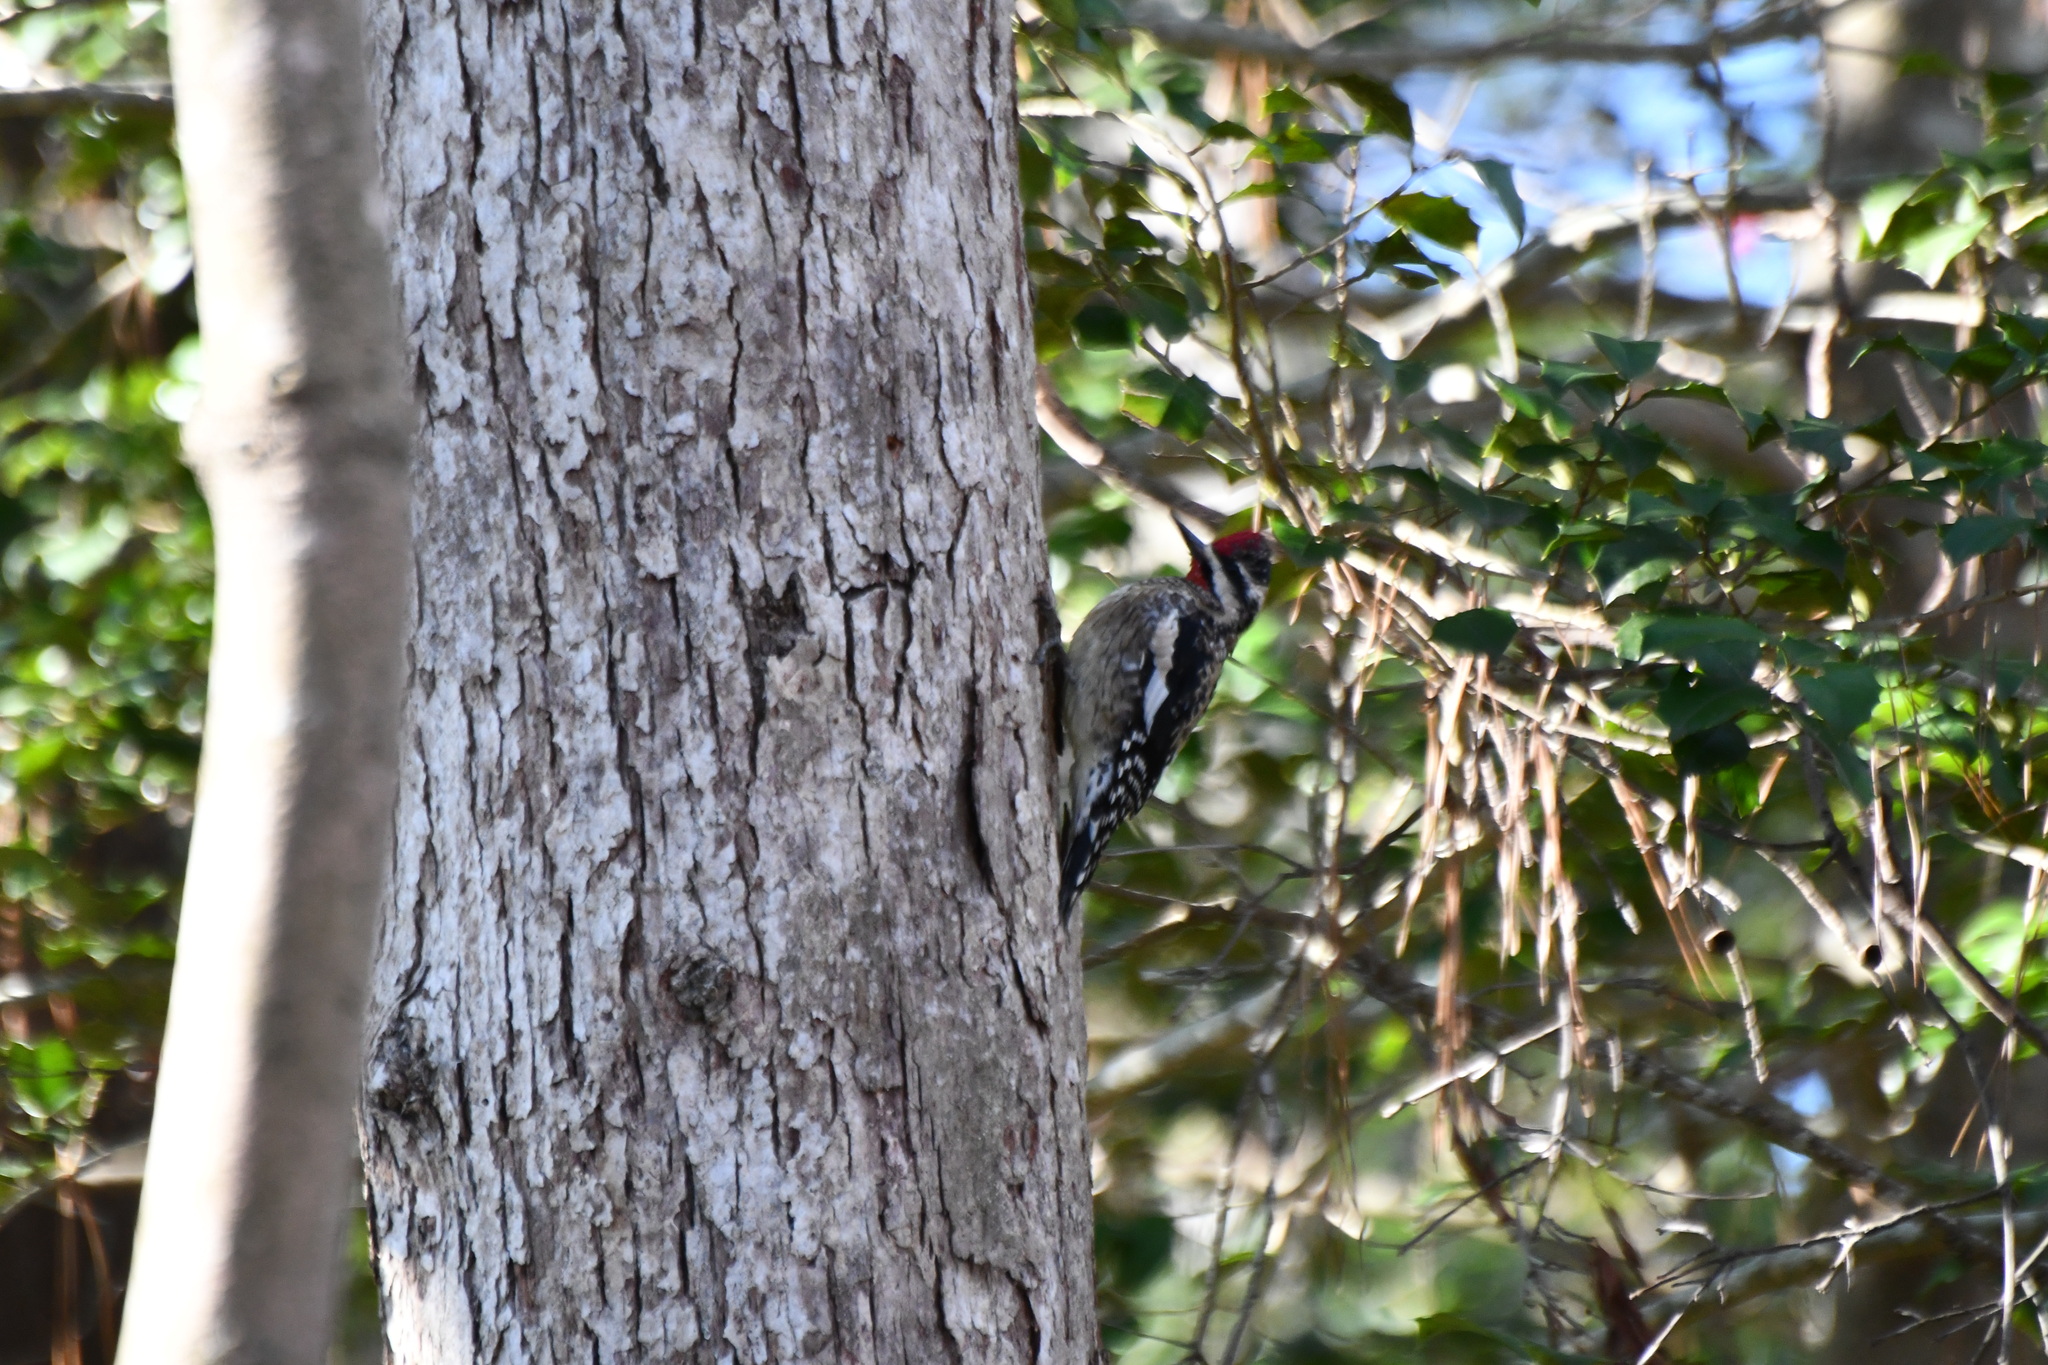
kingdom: Animalia
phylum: Chordata
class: Aves
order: Piciformes
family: Picidae
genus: Sphyrapicus
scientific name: Sphyrapicus varius
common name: Yellow-bellied sapsucker
